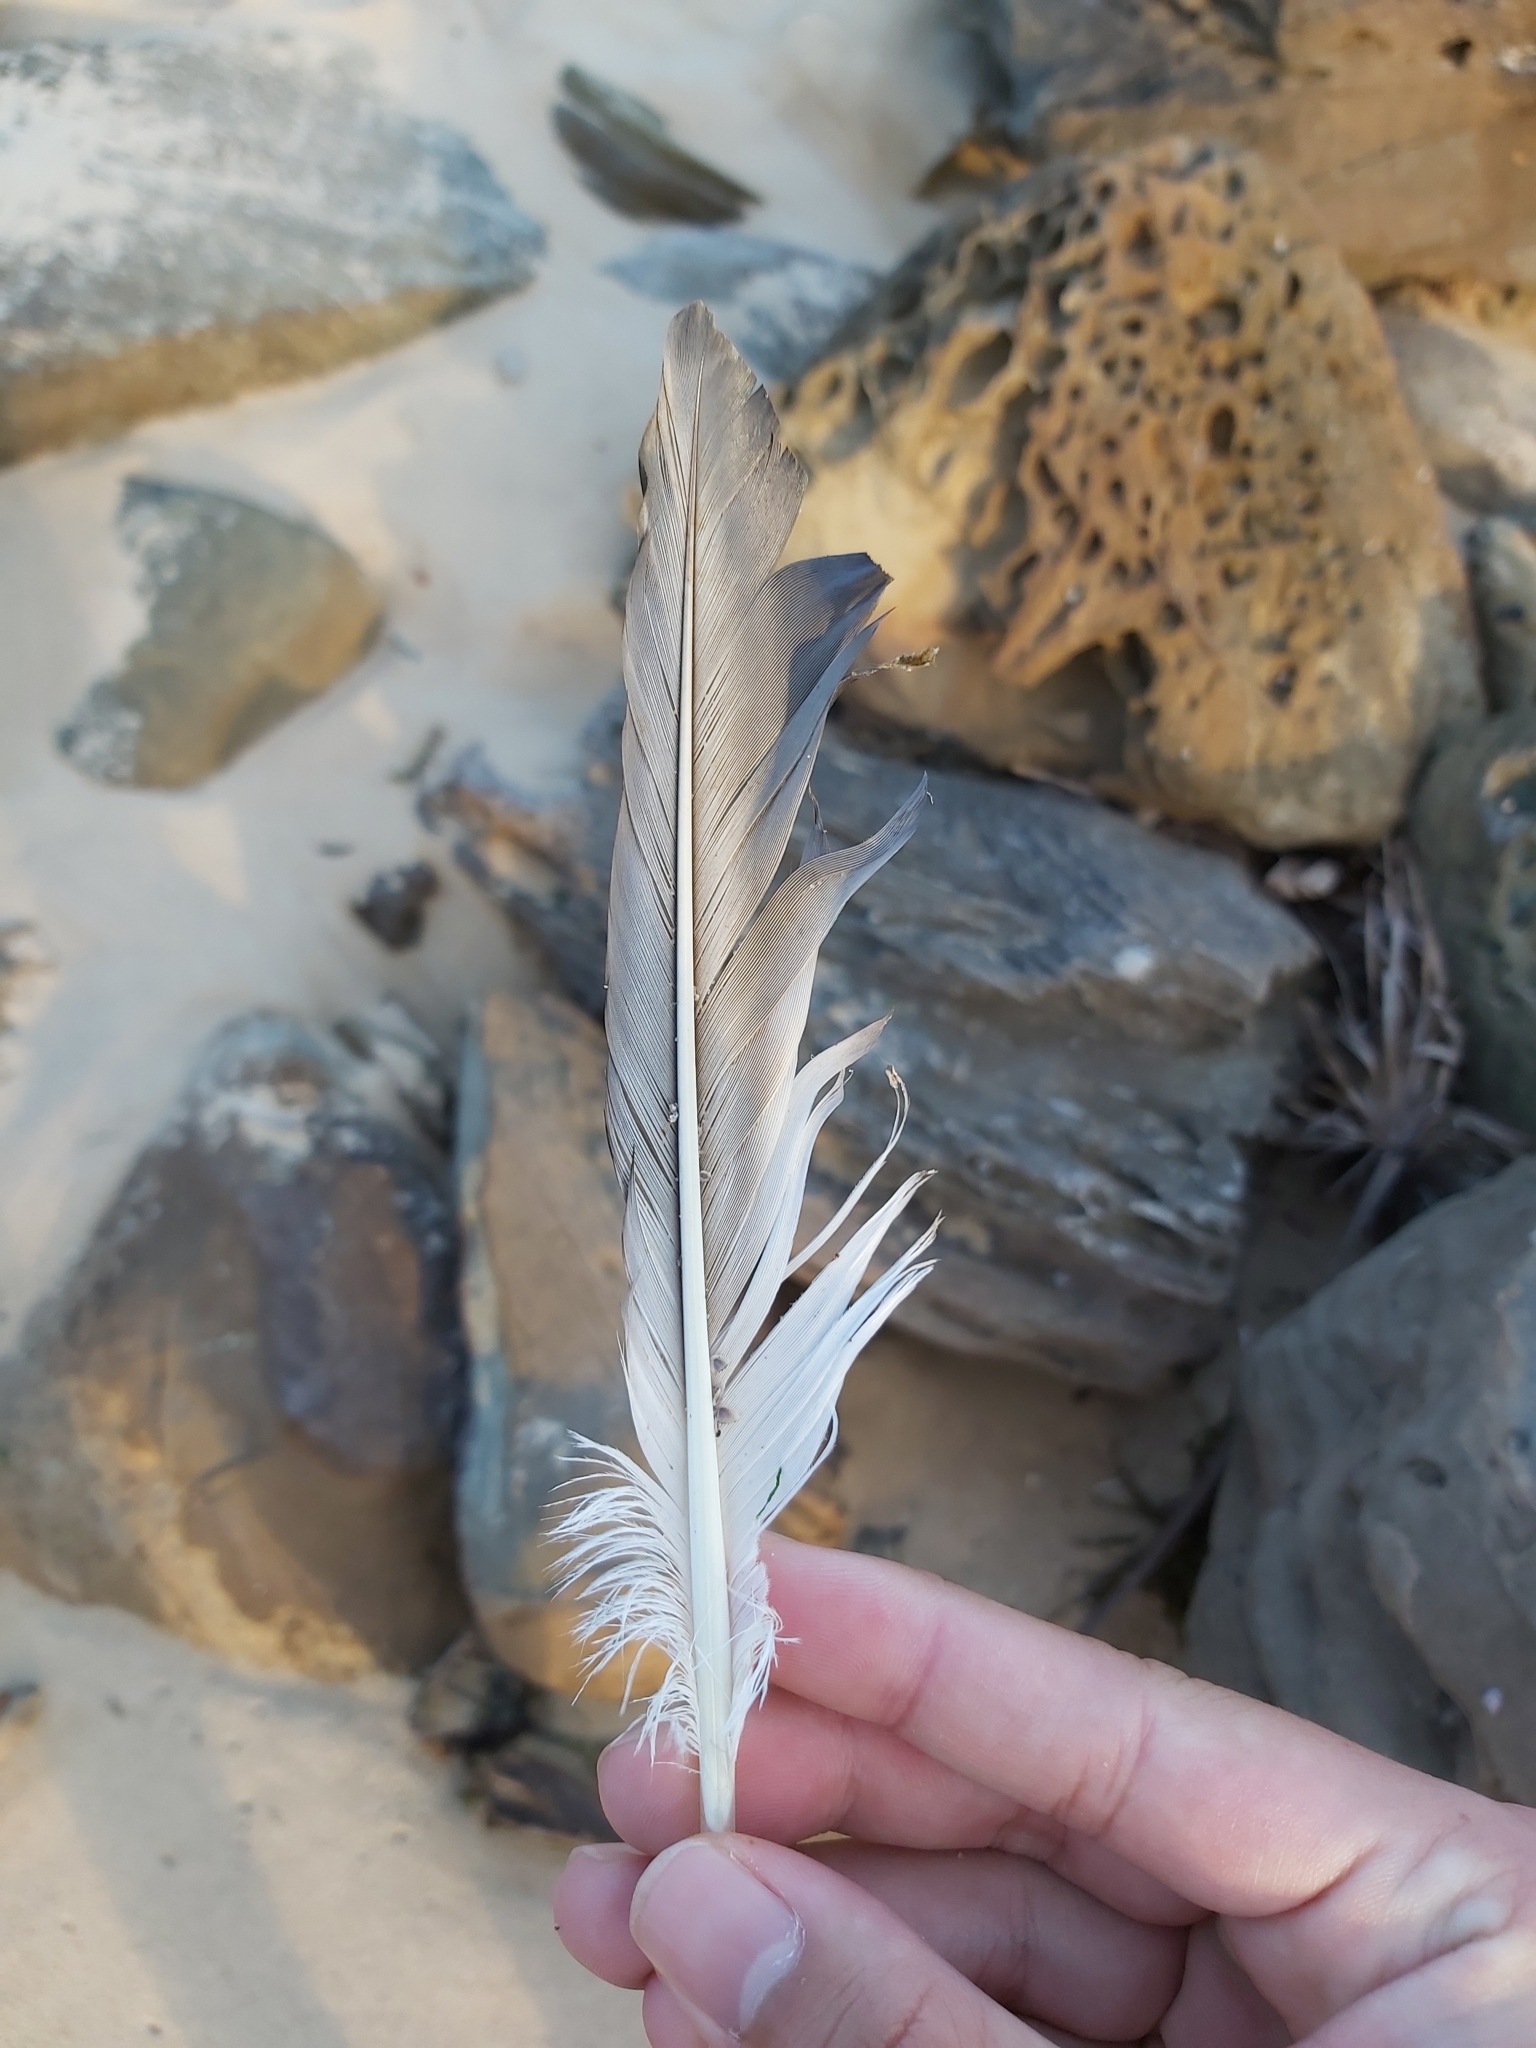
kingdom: Animalia
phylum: Chordata
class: Aves
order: Suliformes
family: Sulidae
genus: Morus
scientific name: Morus serrator
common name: Australasian gannet
